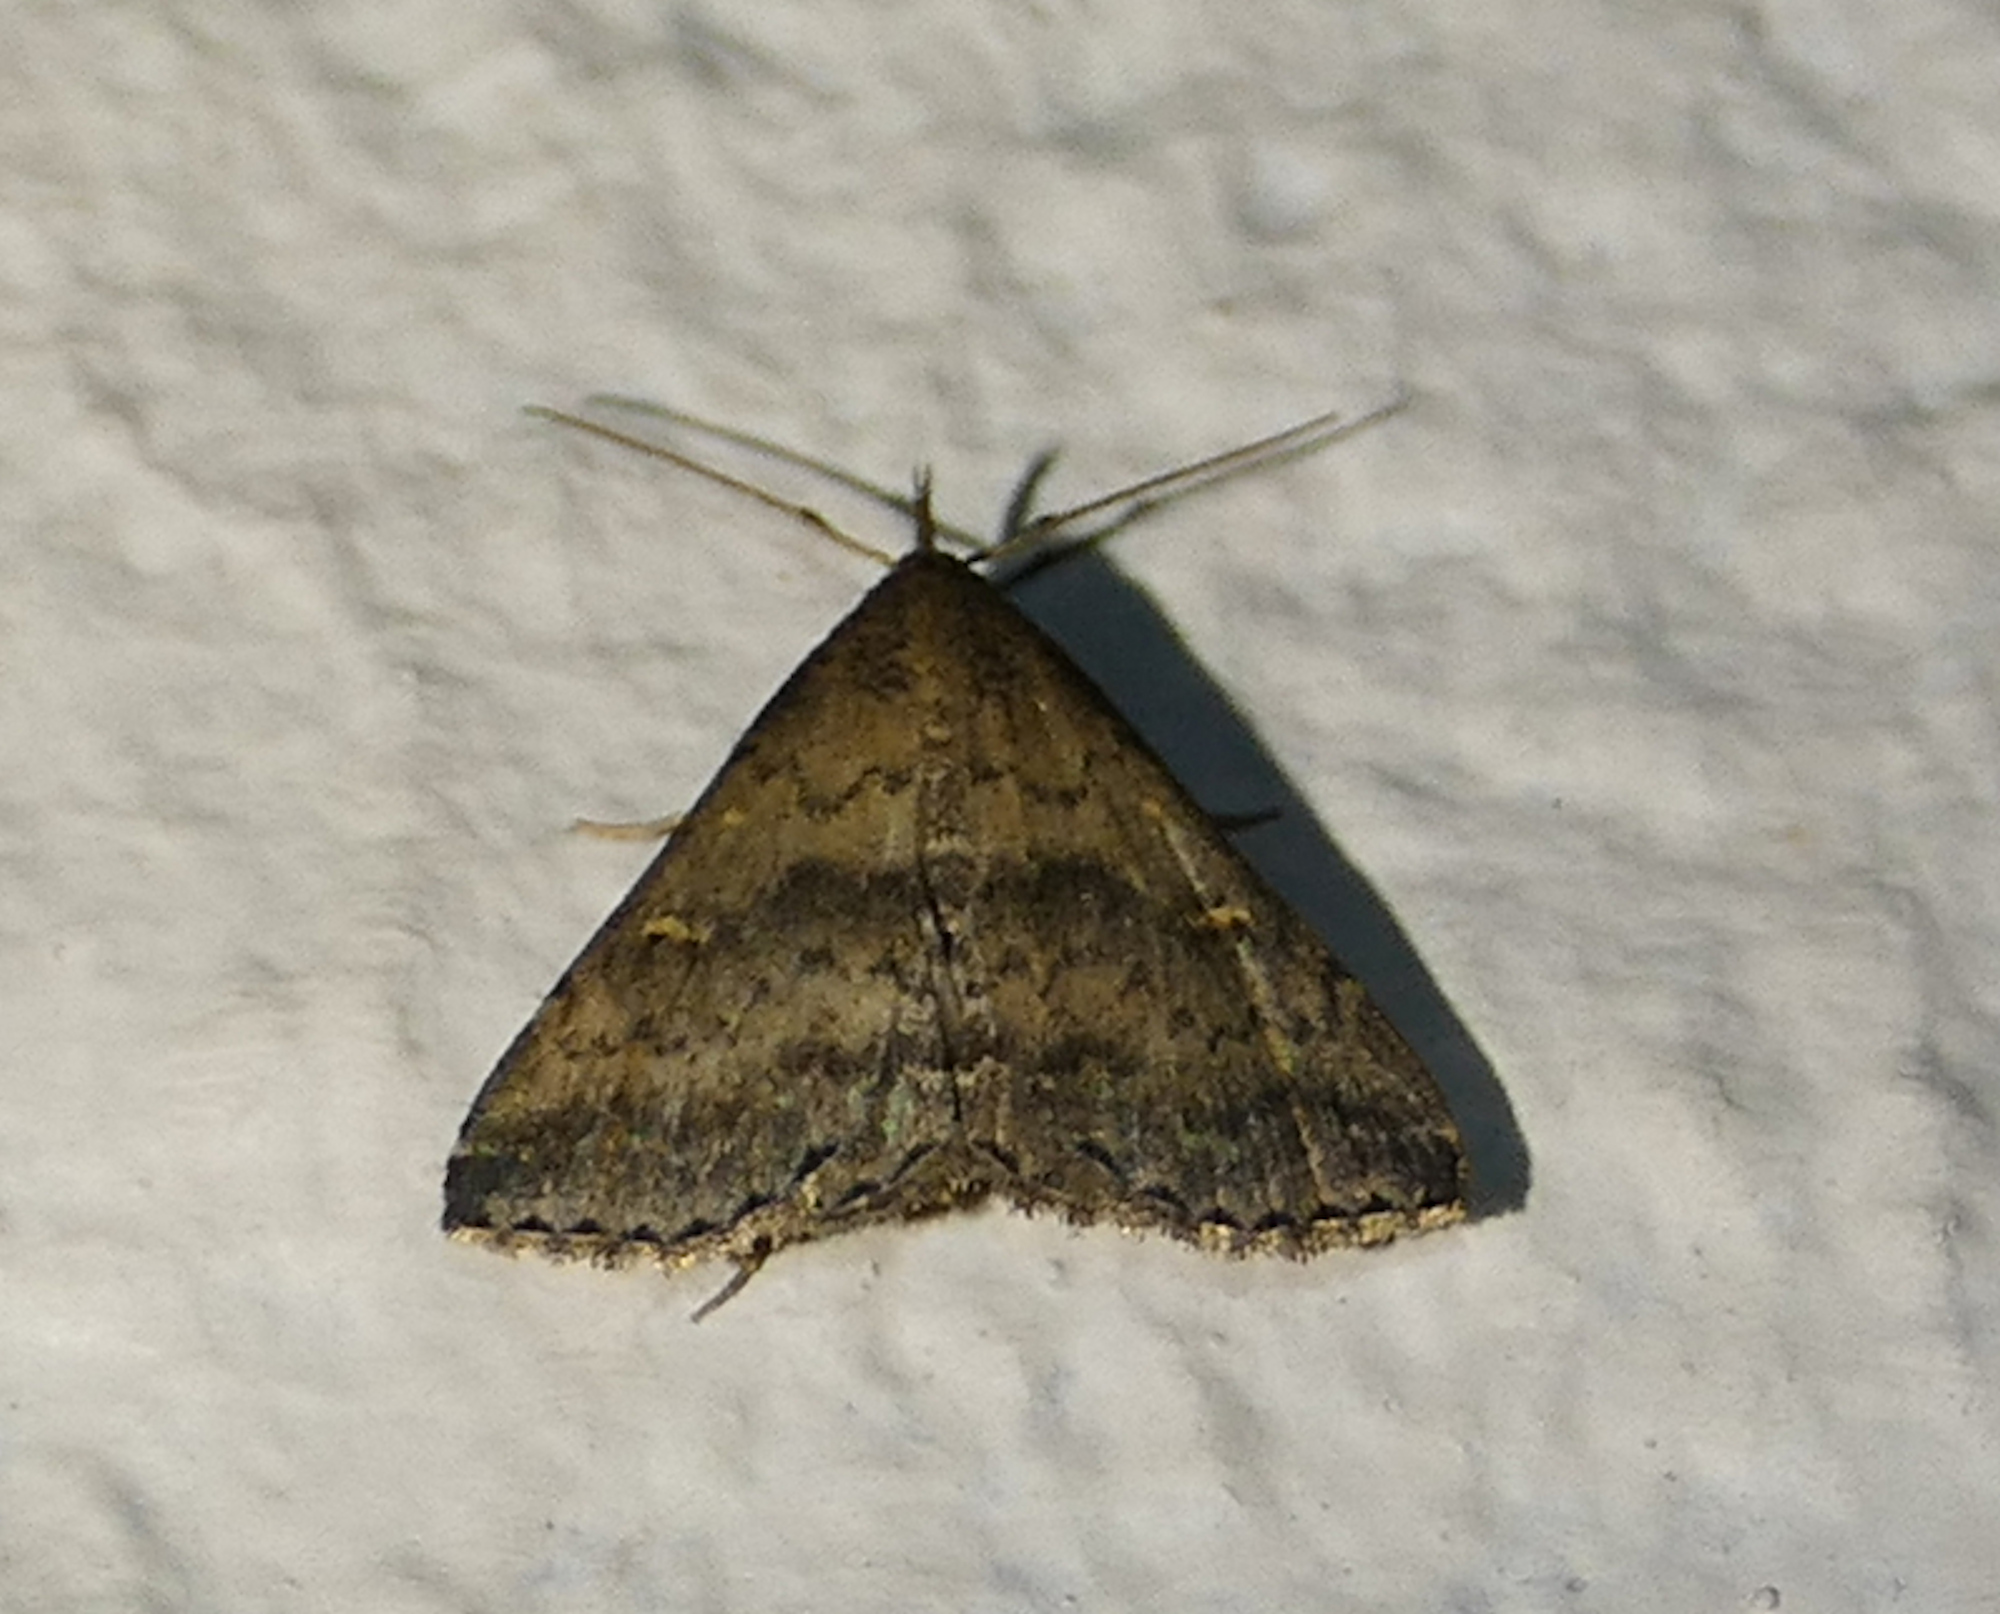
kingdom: Animalia
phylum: Arthropoda
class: Insecta
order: Lepidoptera
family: Erebidae
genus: Tetanolita
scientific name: Tetanolita floridana
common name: Florida tetanolita moth
